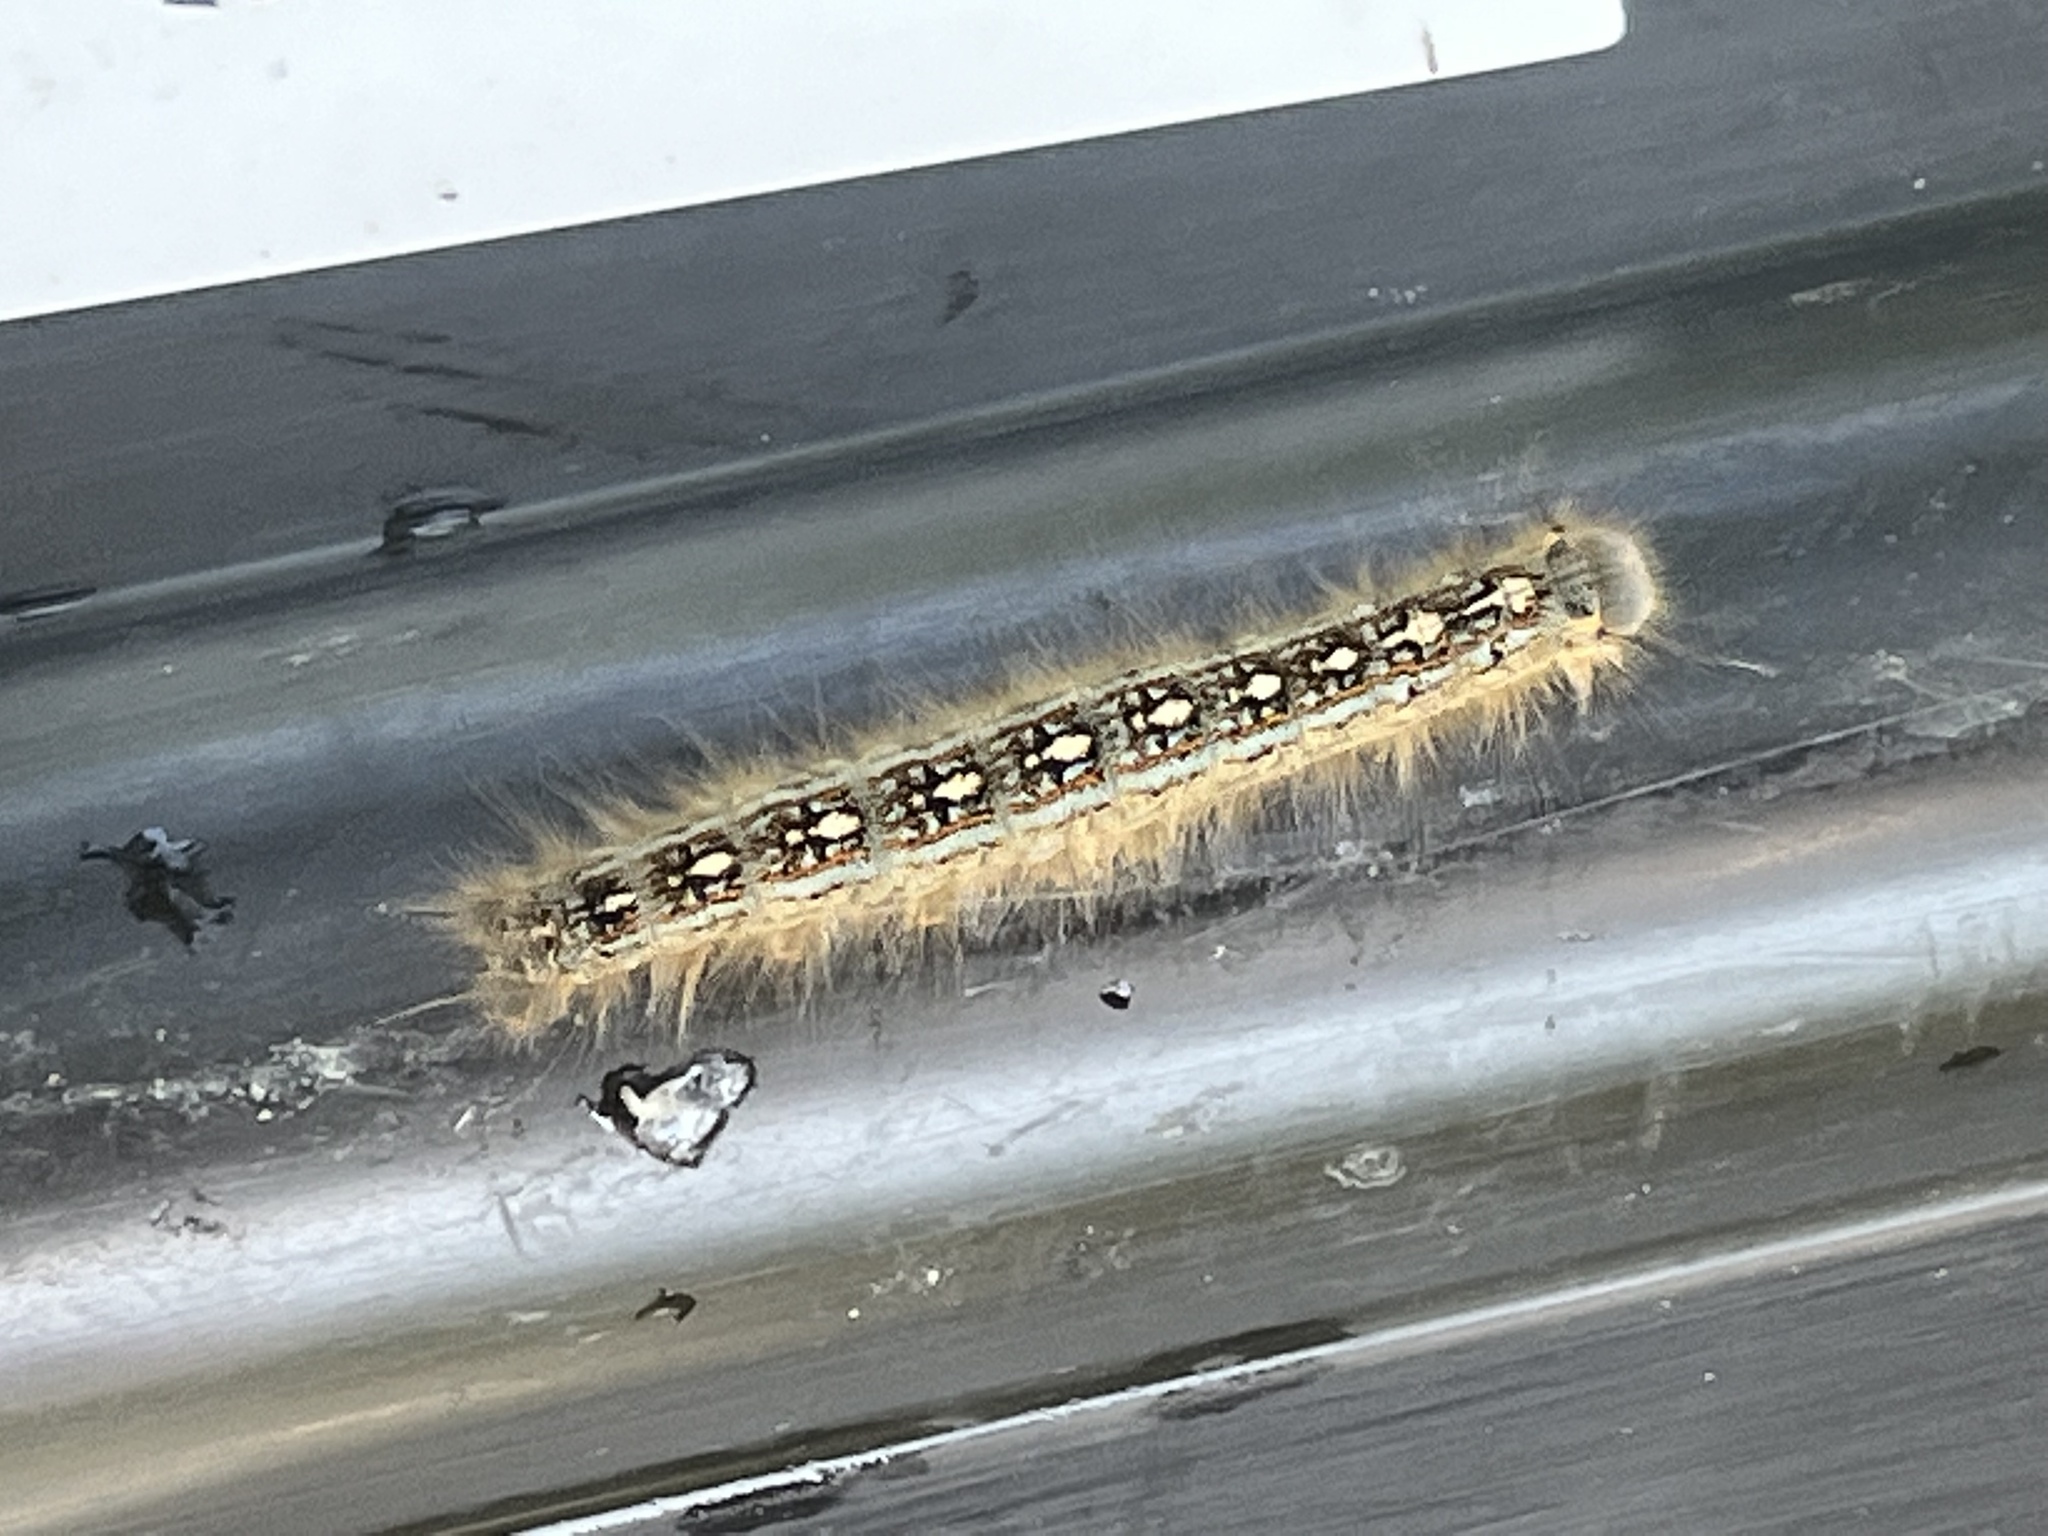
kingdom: Animalia
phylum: Arthropoda
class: Insecta
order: Lepidoptera
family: Lasiocampidae
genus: Malacosoma
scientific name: Malacosoma disstria
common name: Forest tent caterpillar
